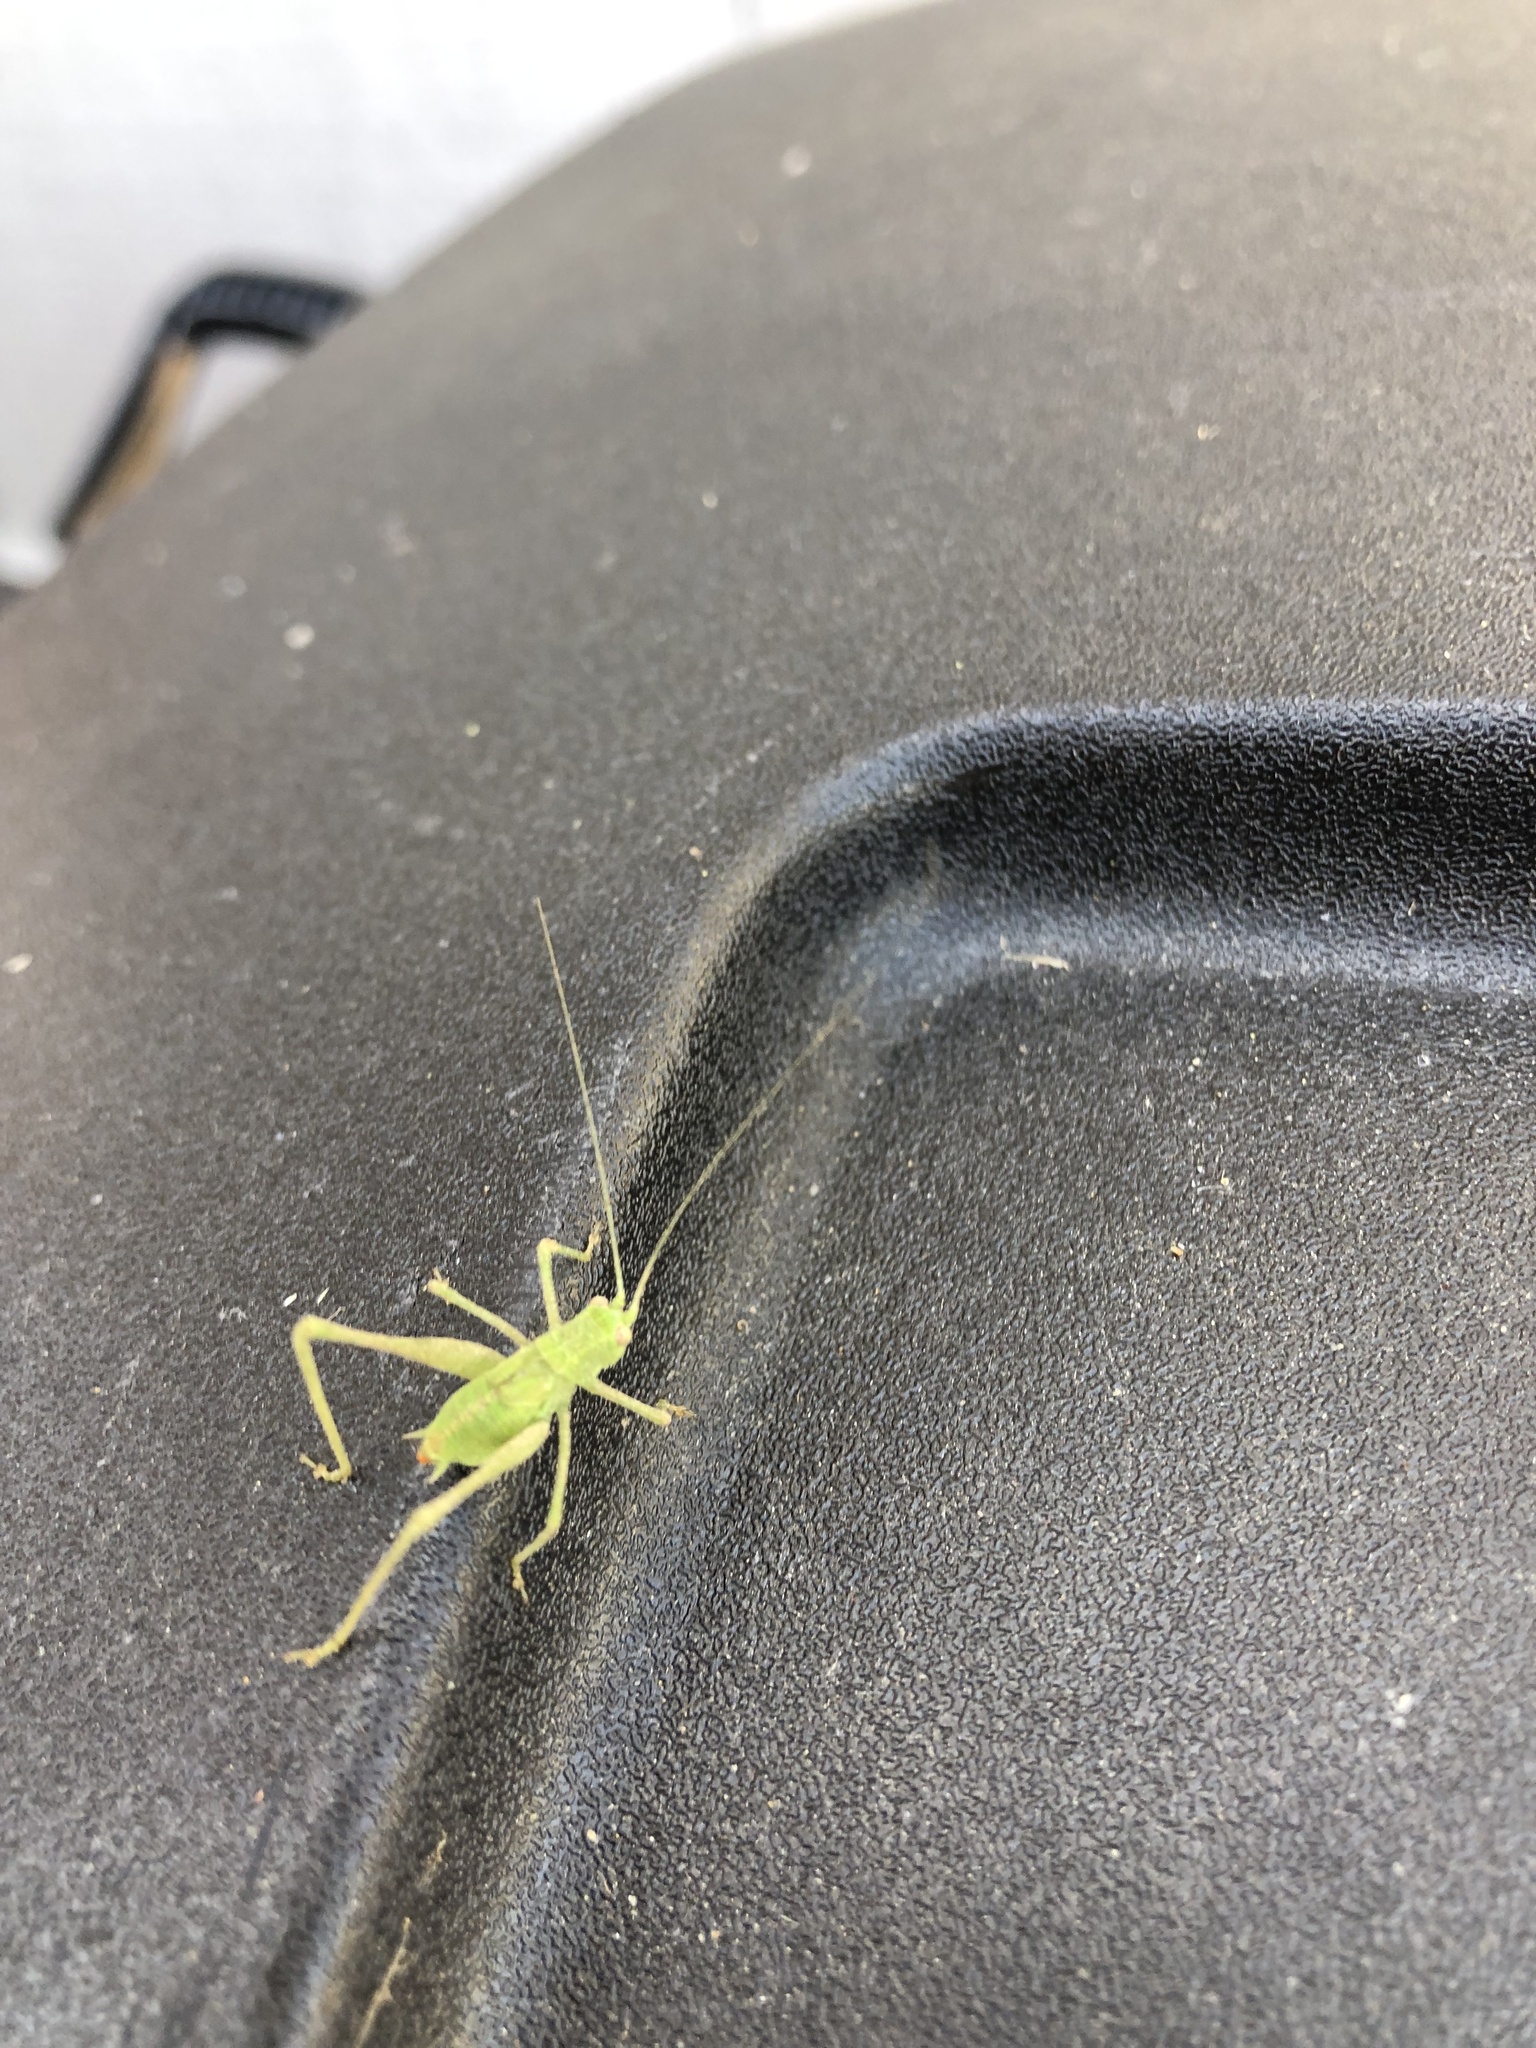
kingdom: Animalia
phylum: Arthropoda
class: Insecta
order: Orthoptera
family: Tettigoniidae
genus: Phaneroptera
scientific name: Phaneroptera nana
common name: Southern sickle bush-cricket
